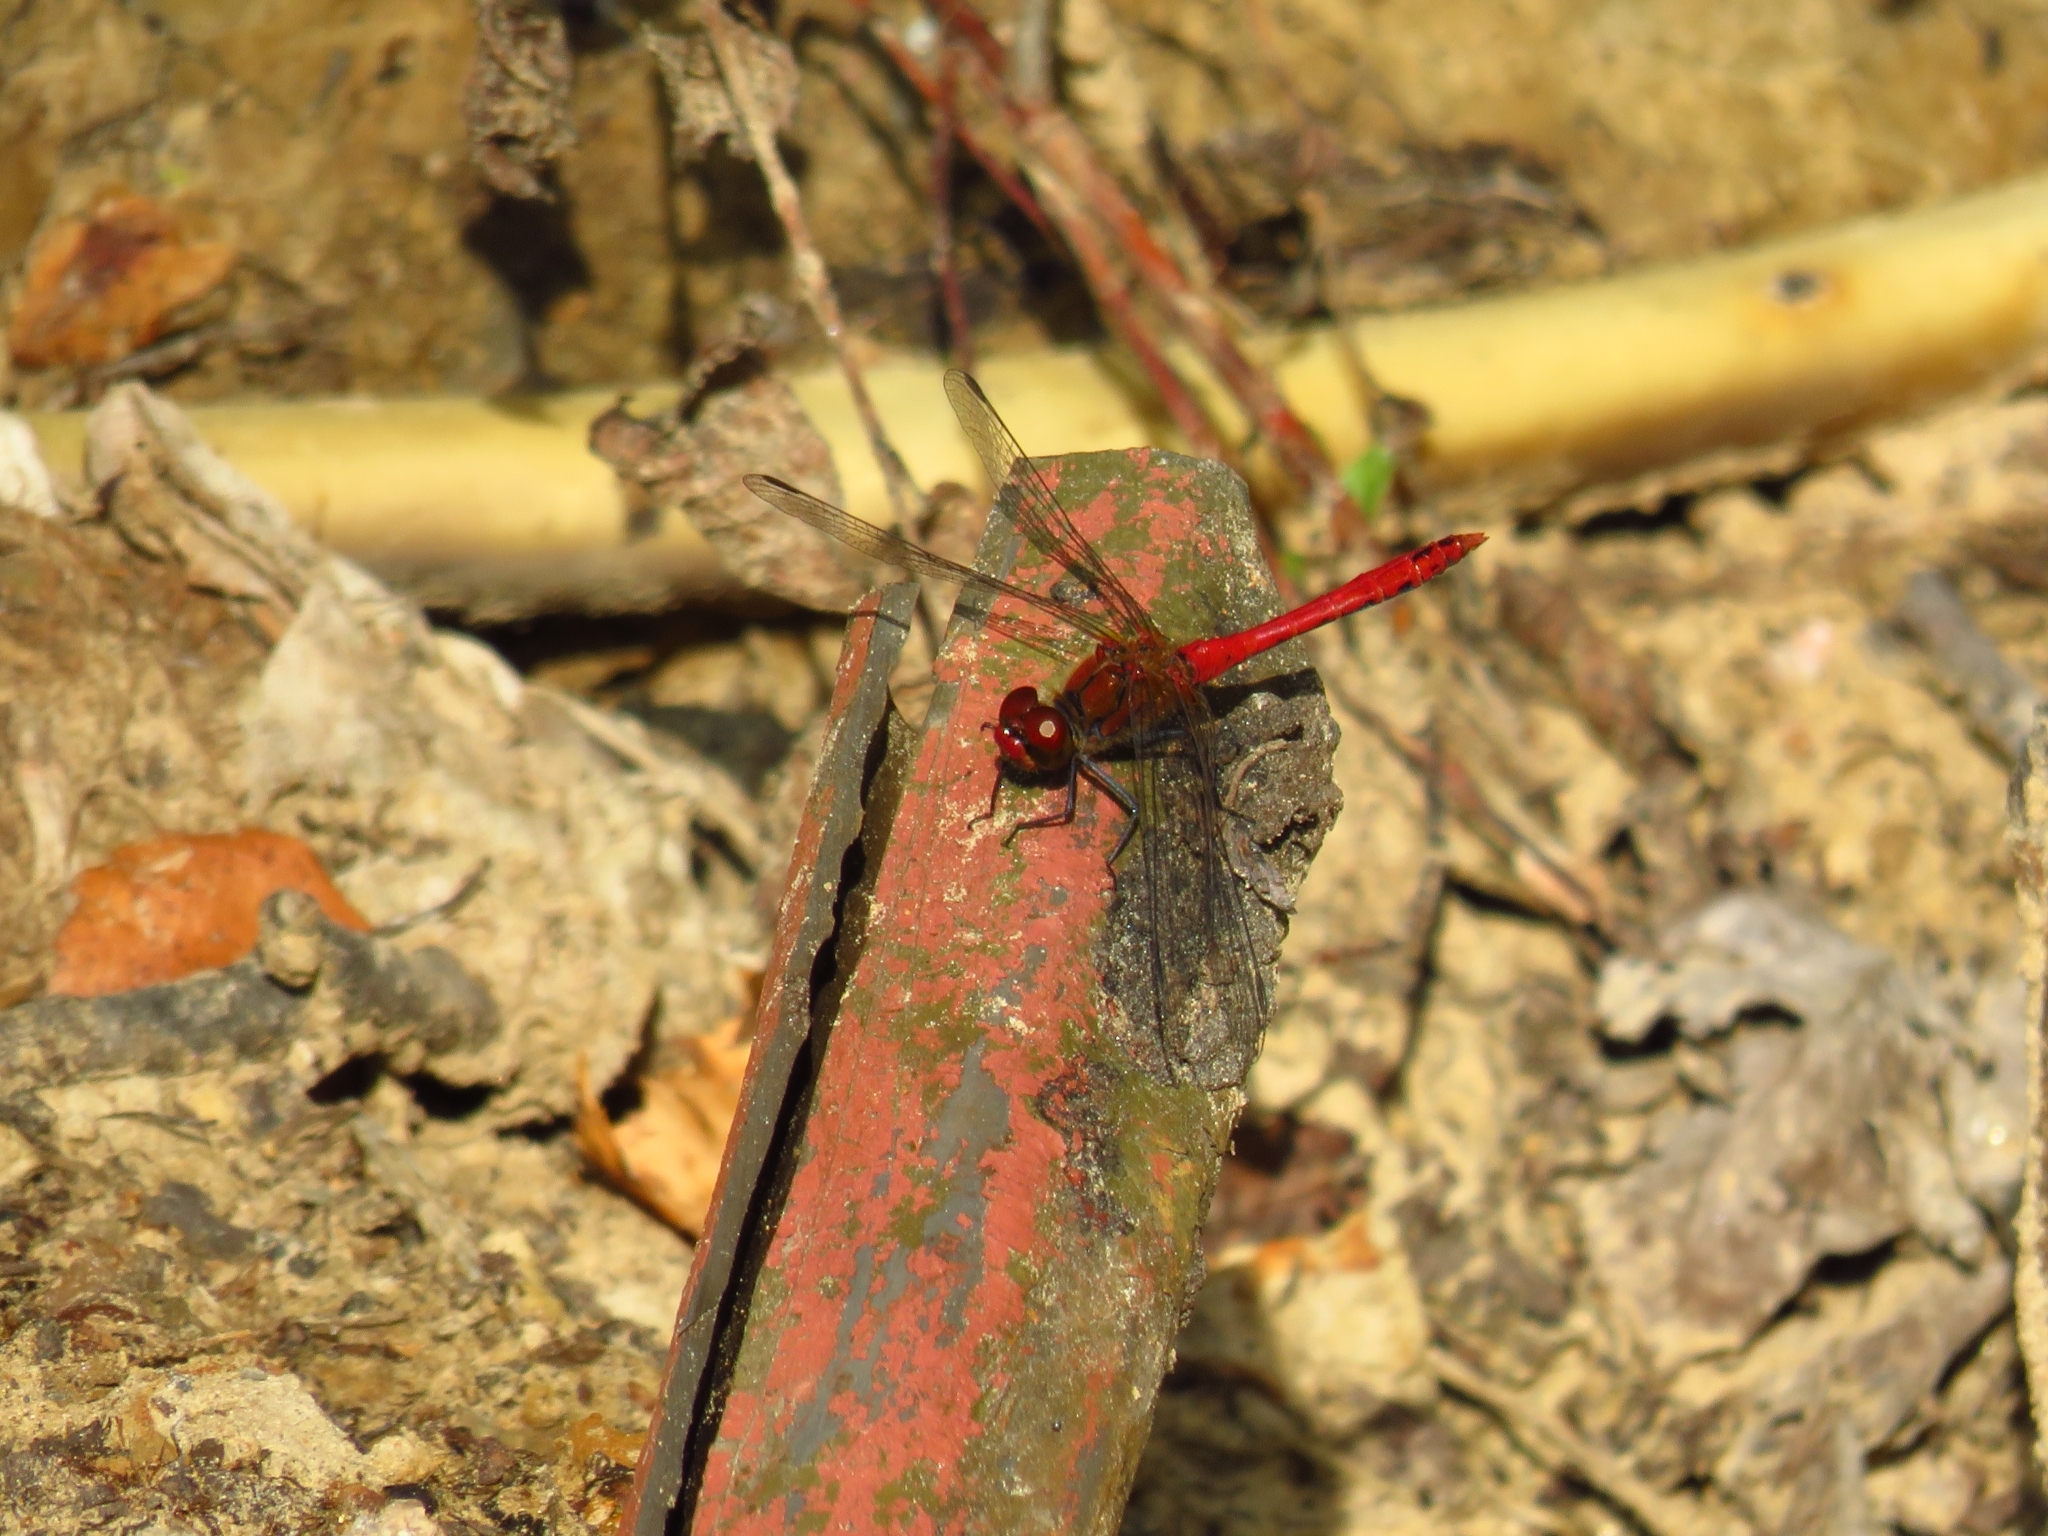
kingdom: Animalia
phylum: Arthropoda
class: Insecta
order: Odonata
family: Libellulidae
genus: Sympetrum
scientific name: Sympetrum sanguineum
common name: Ruddy darter
